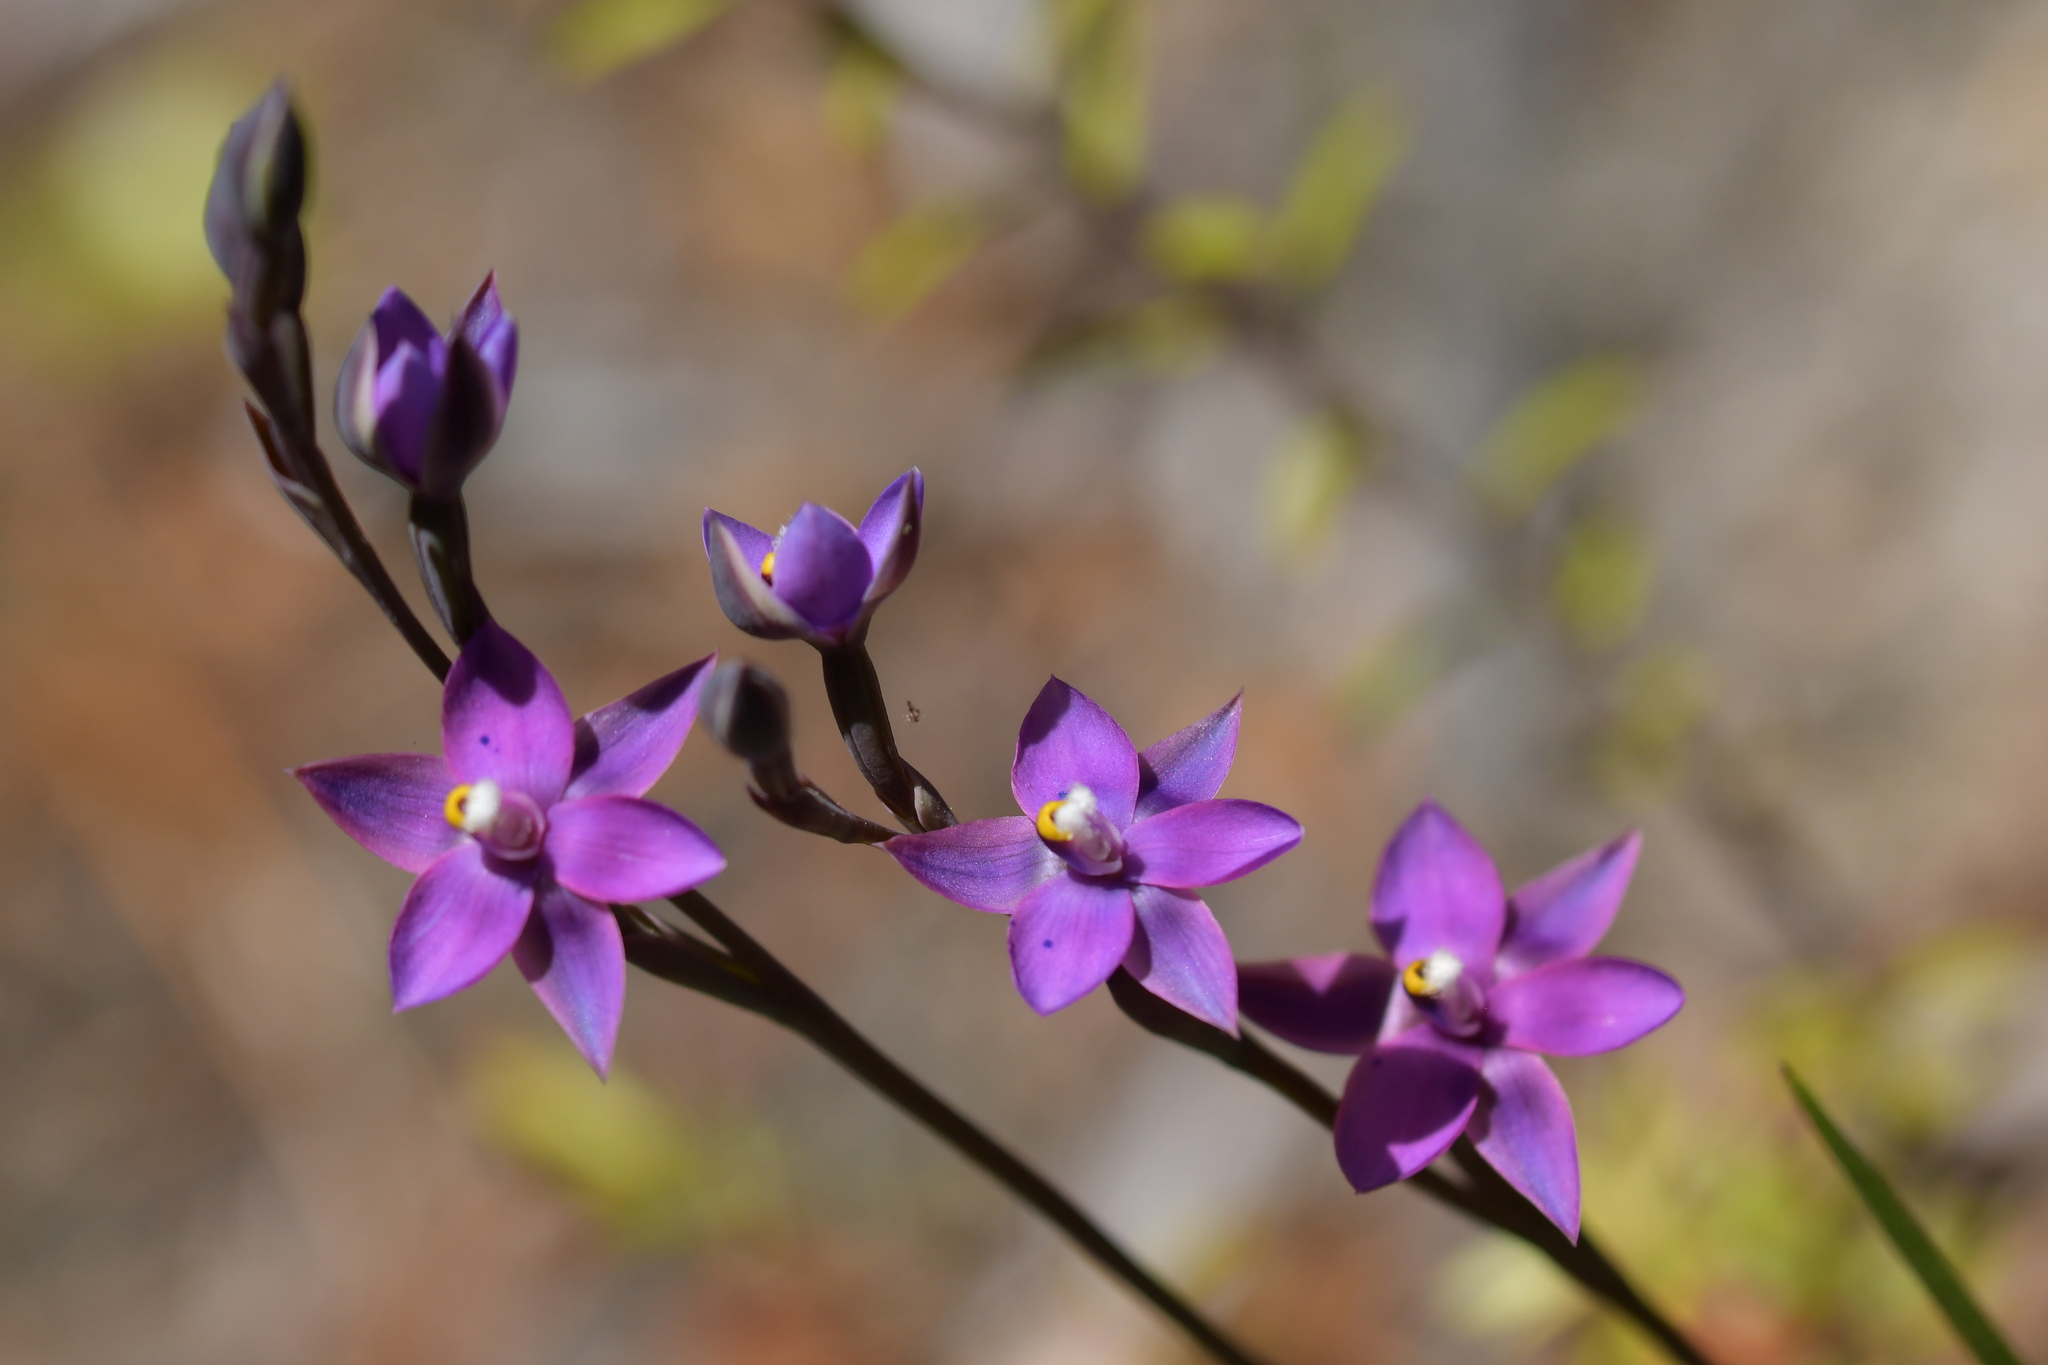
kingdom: Plantae
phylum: Tracheophyta
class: Liliopsida
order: Asparagales
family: Orchidaceae
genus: Thelymitra
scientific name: Thelymitra nervosa
